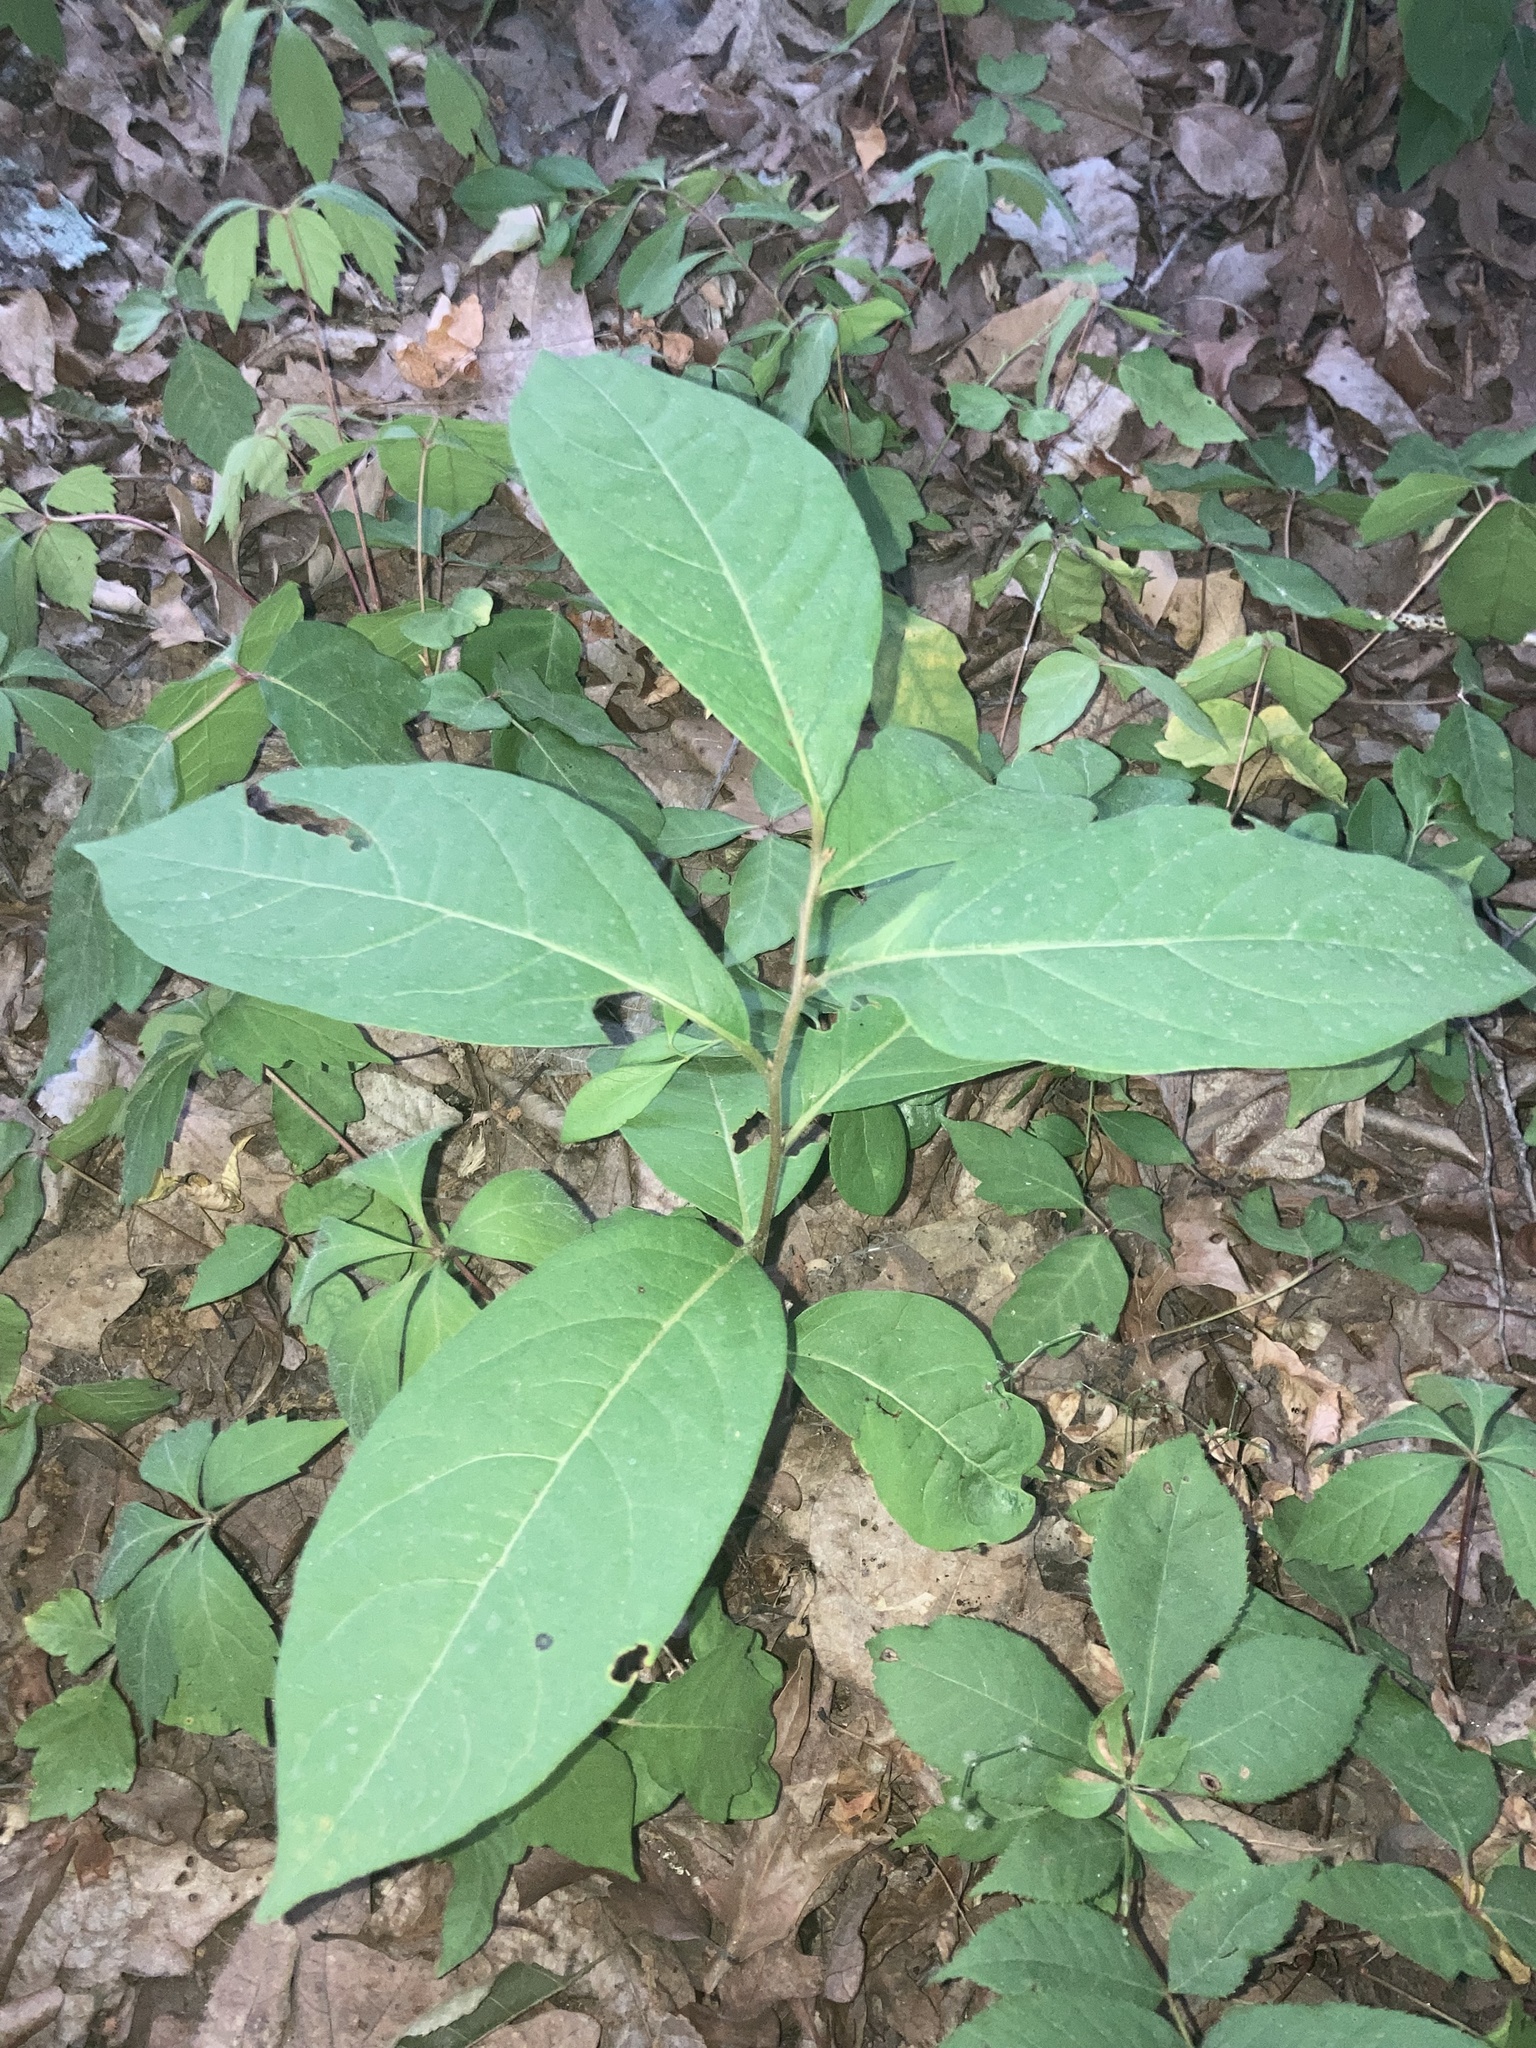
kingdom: Plantae
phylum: Tracheophyta
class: Magnoliopsida
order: Ericales
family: Ebenaceae
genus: Diospyros
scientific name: Diospyros virginiana
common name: Persimmon
